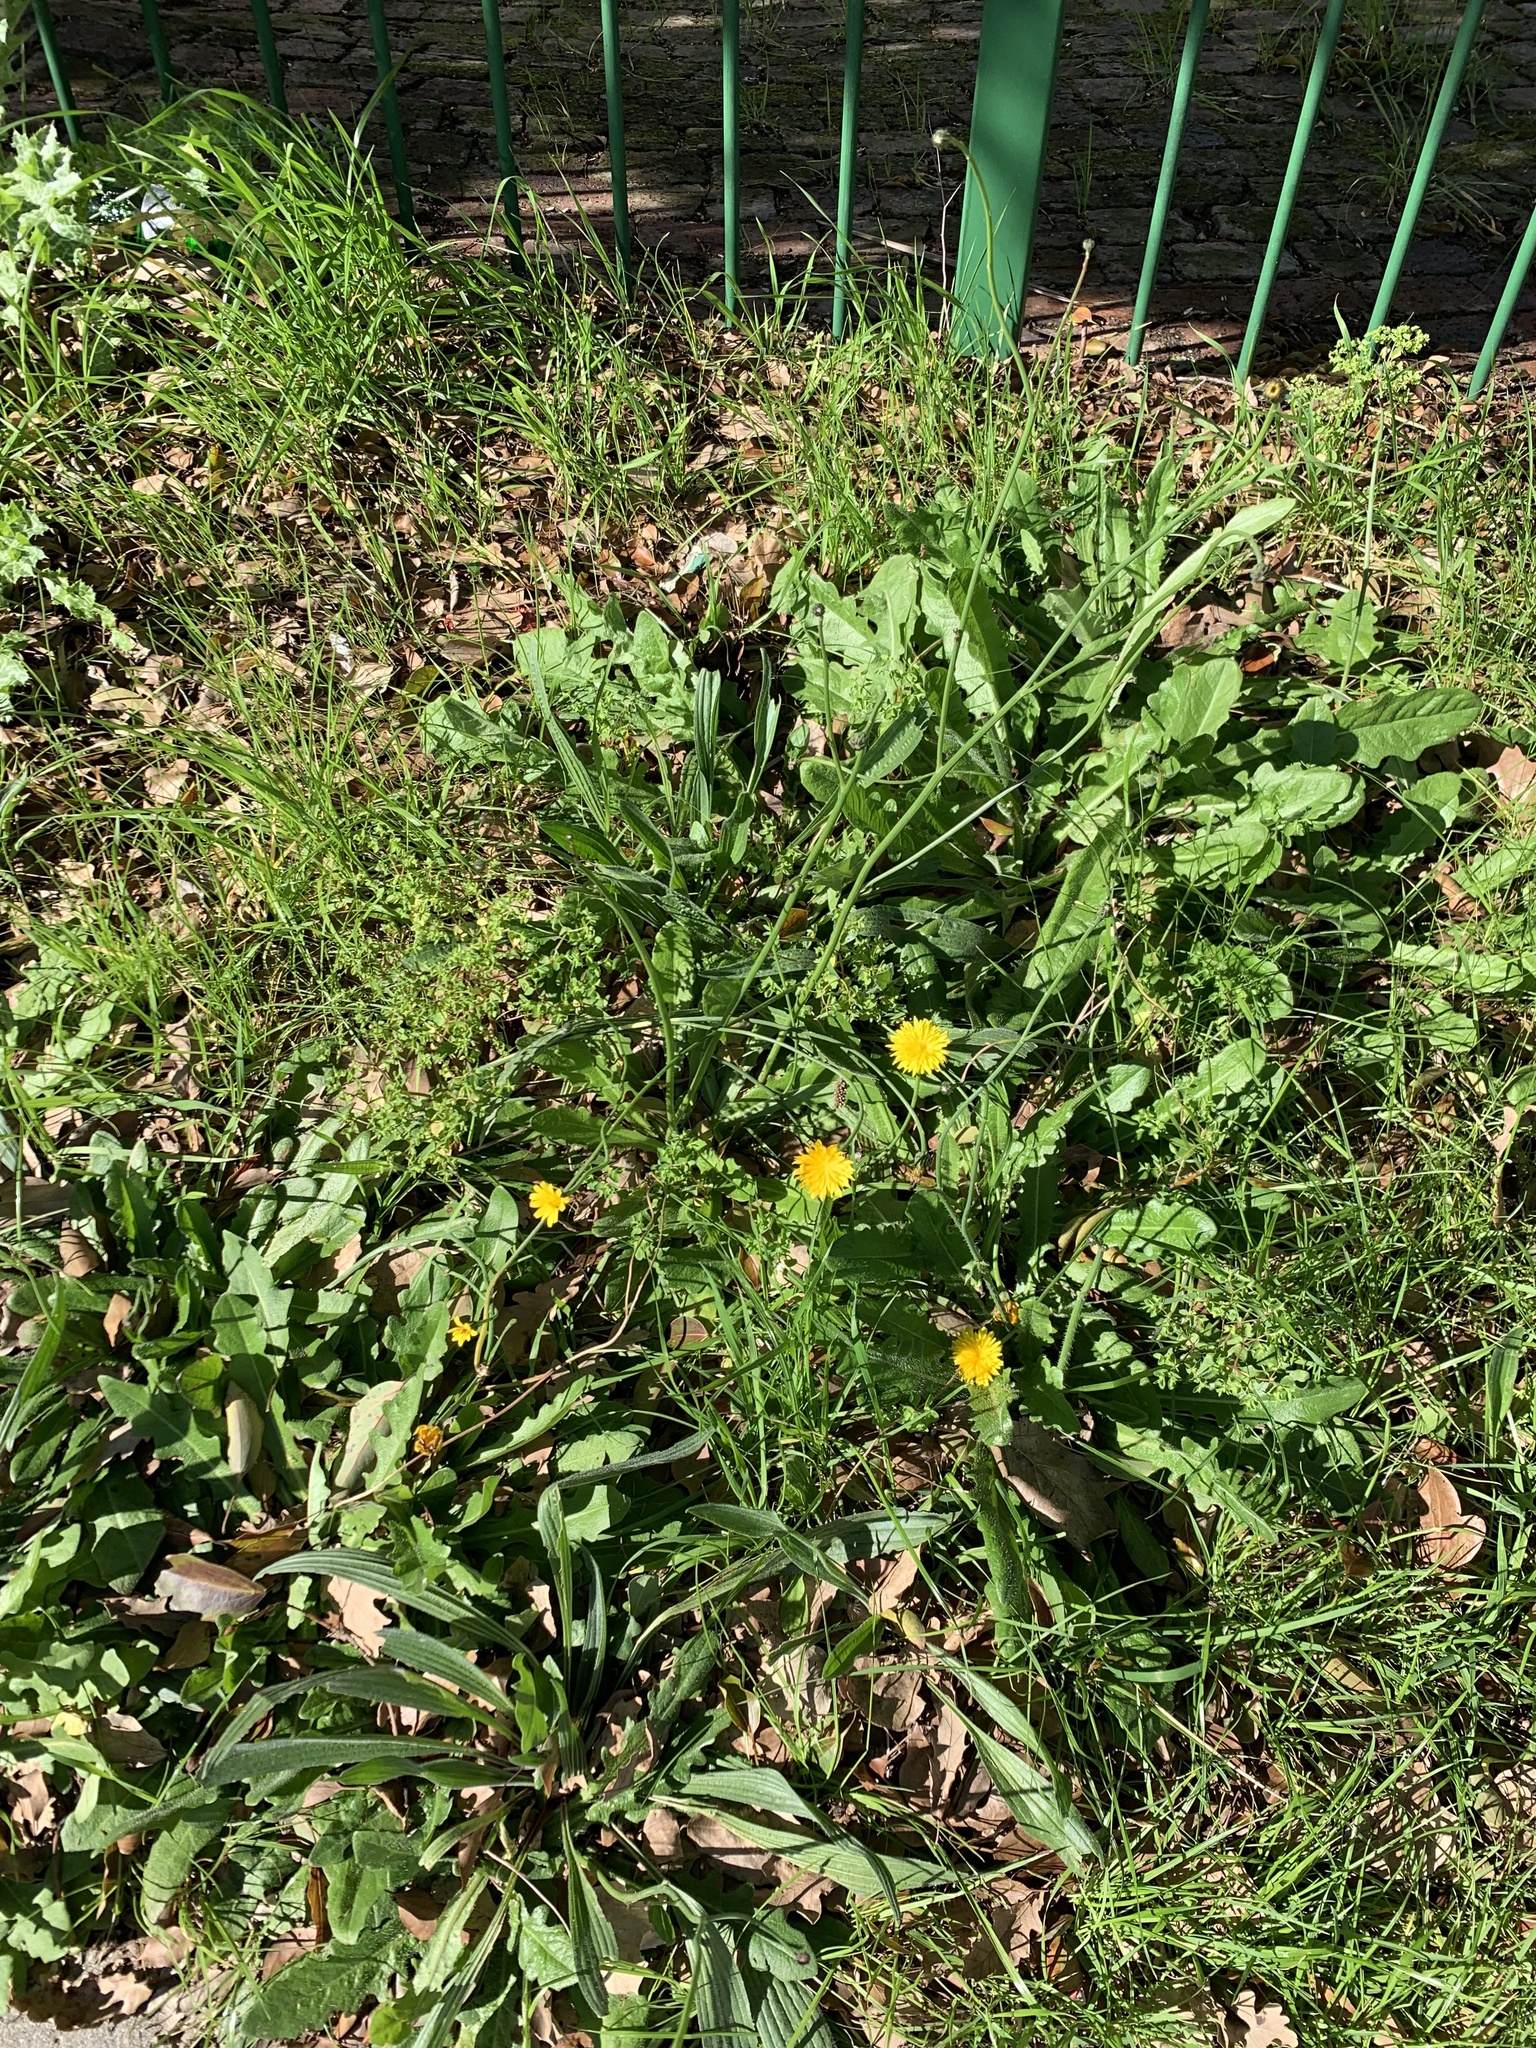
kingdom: Plantae
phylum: Tracheophyta
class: Magnoliopsida
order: Asterales
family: Asteraceae
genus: Hypochaeris
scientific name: Hypochaeris radicata
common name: Flatweed
